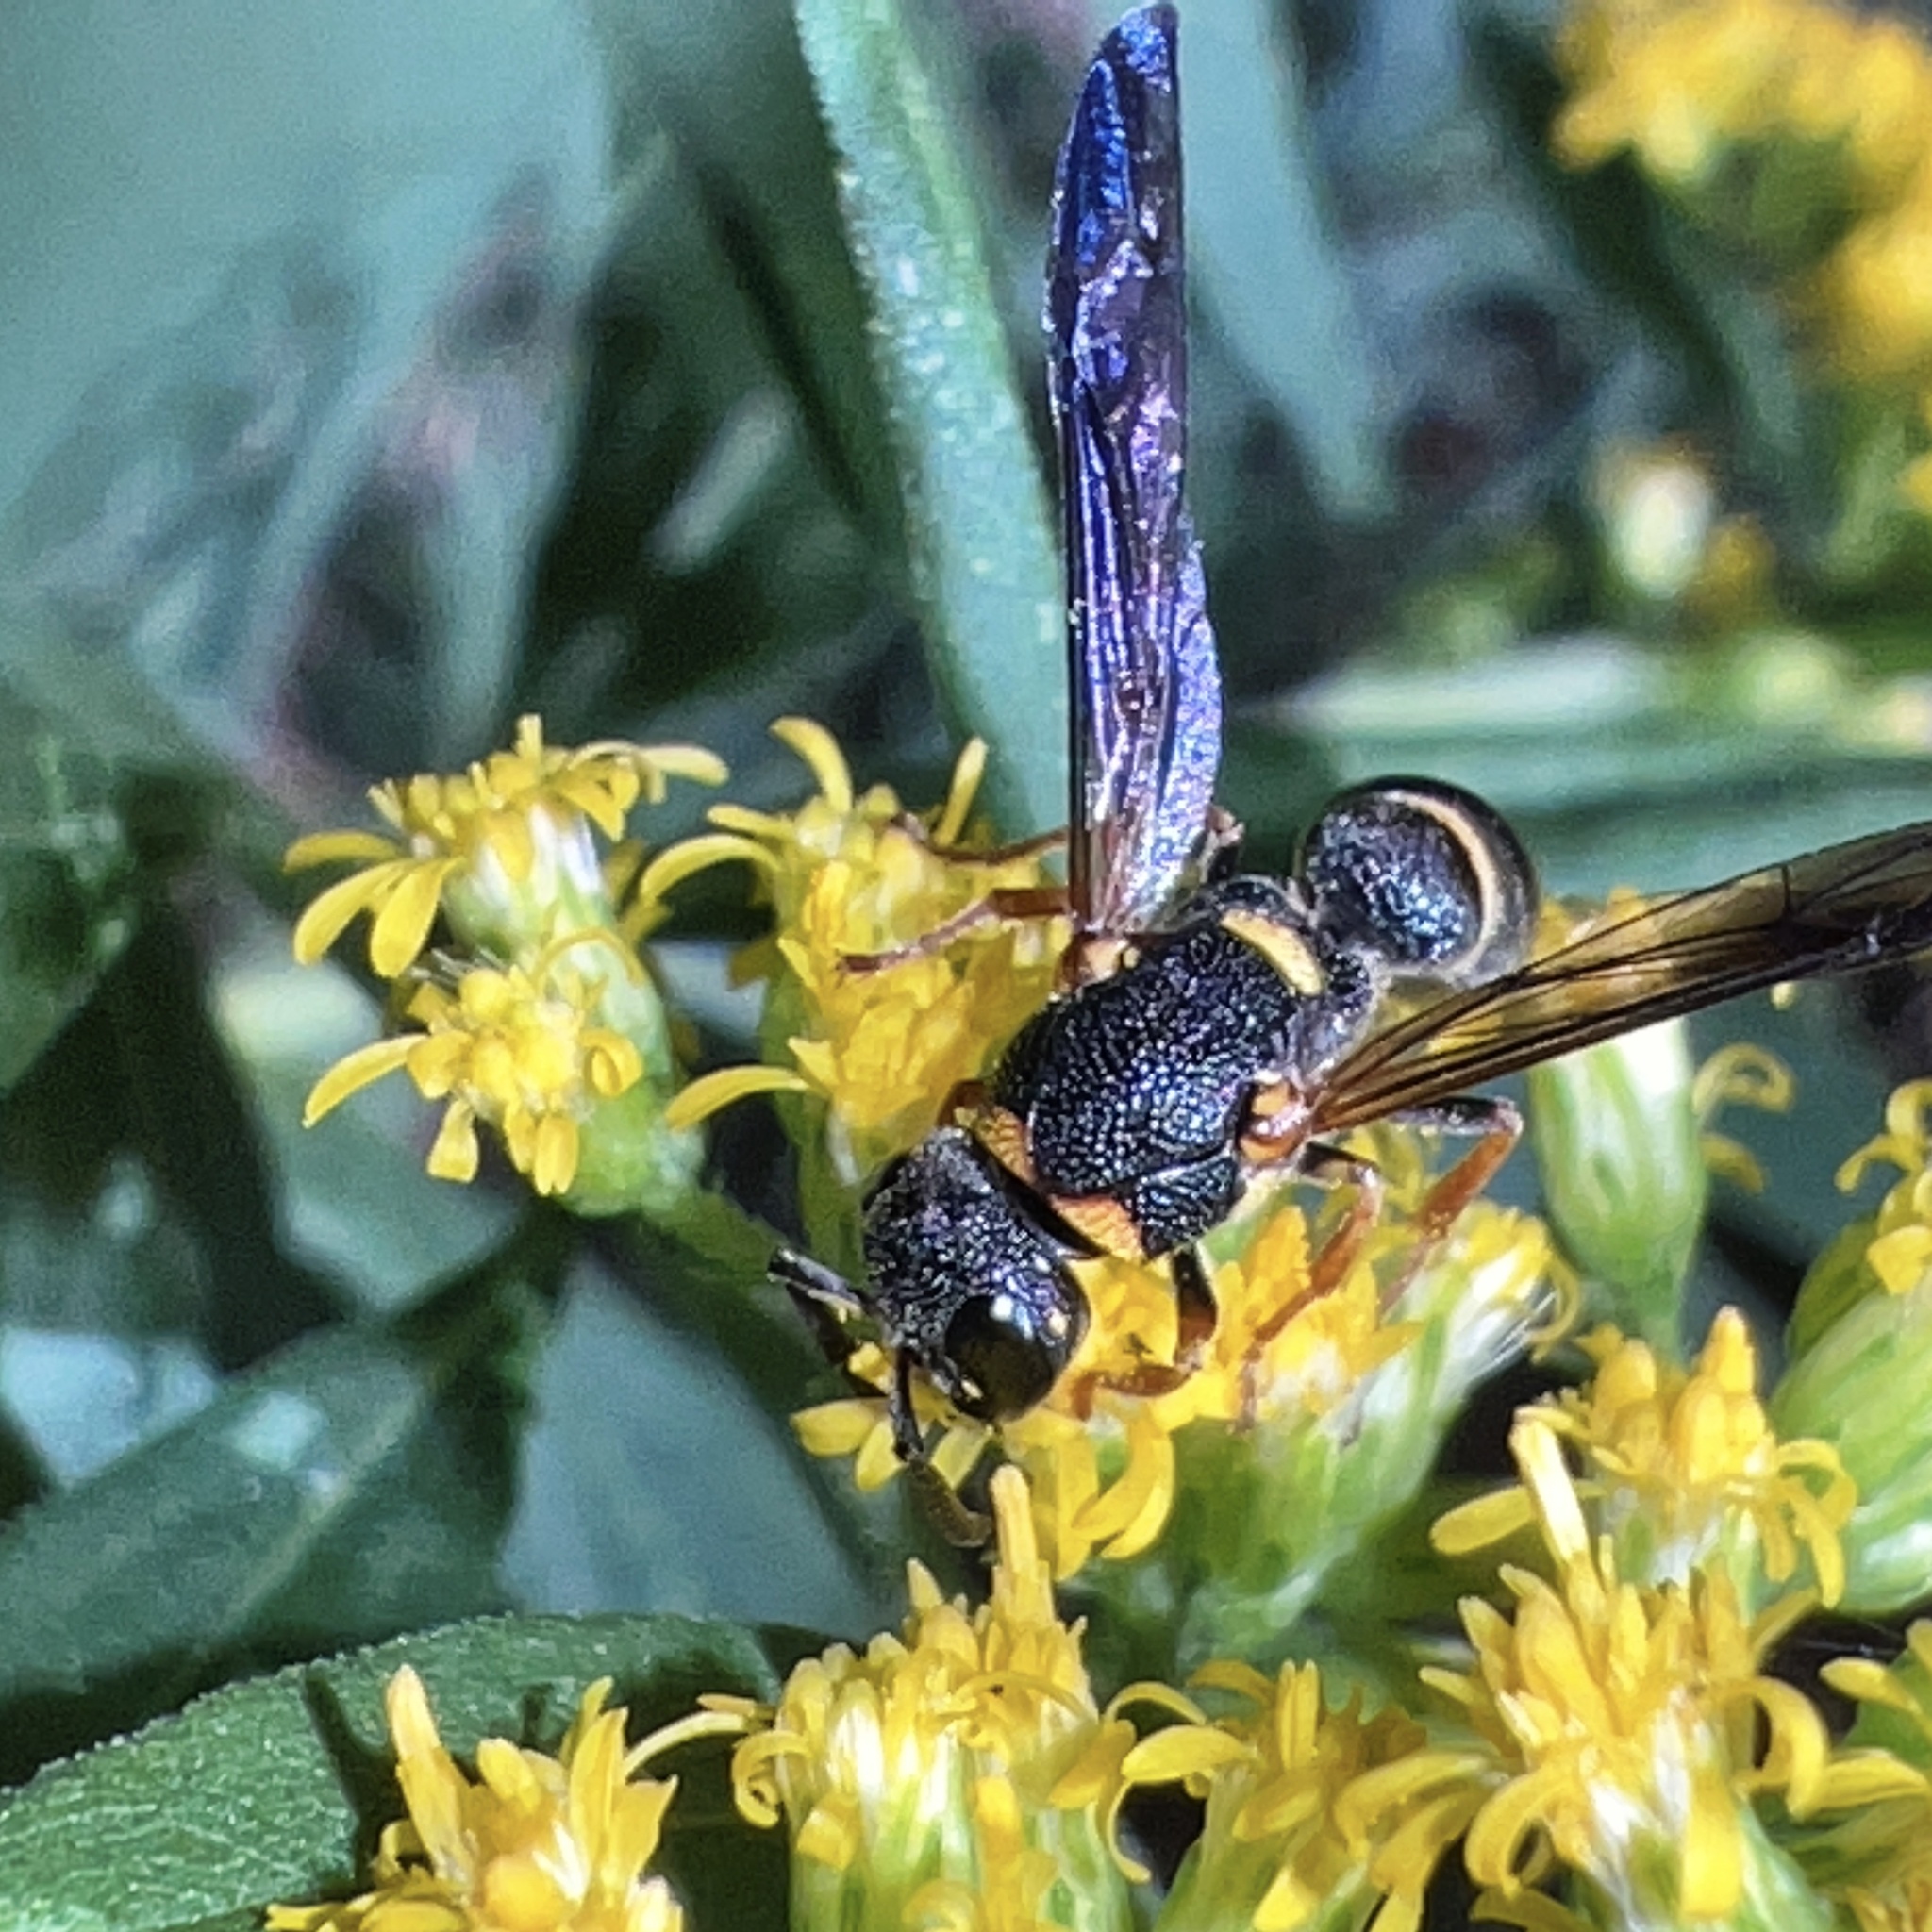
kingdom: Animalia
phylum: Arthropoda
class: Insecta
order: Hymenoptera
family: Eumenidae
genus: Parancistrocerus
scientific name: Parancistrocerus perennis
